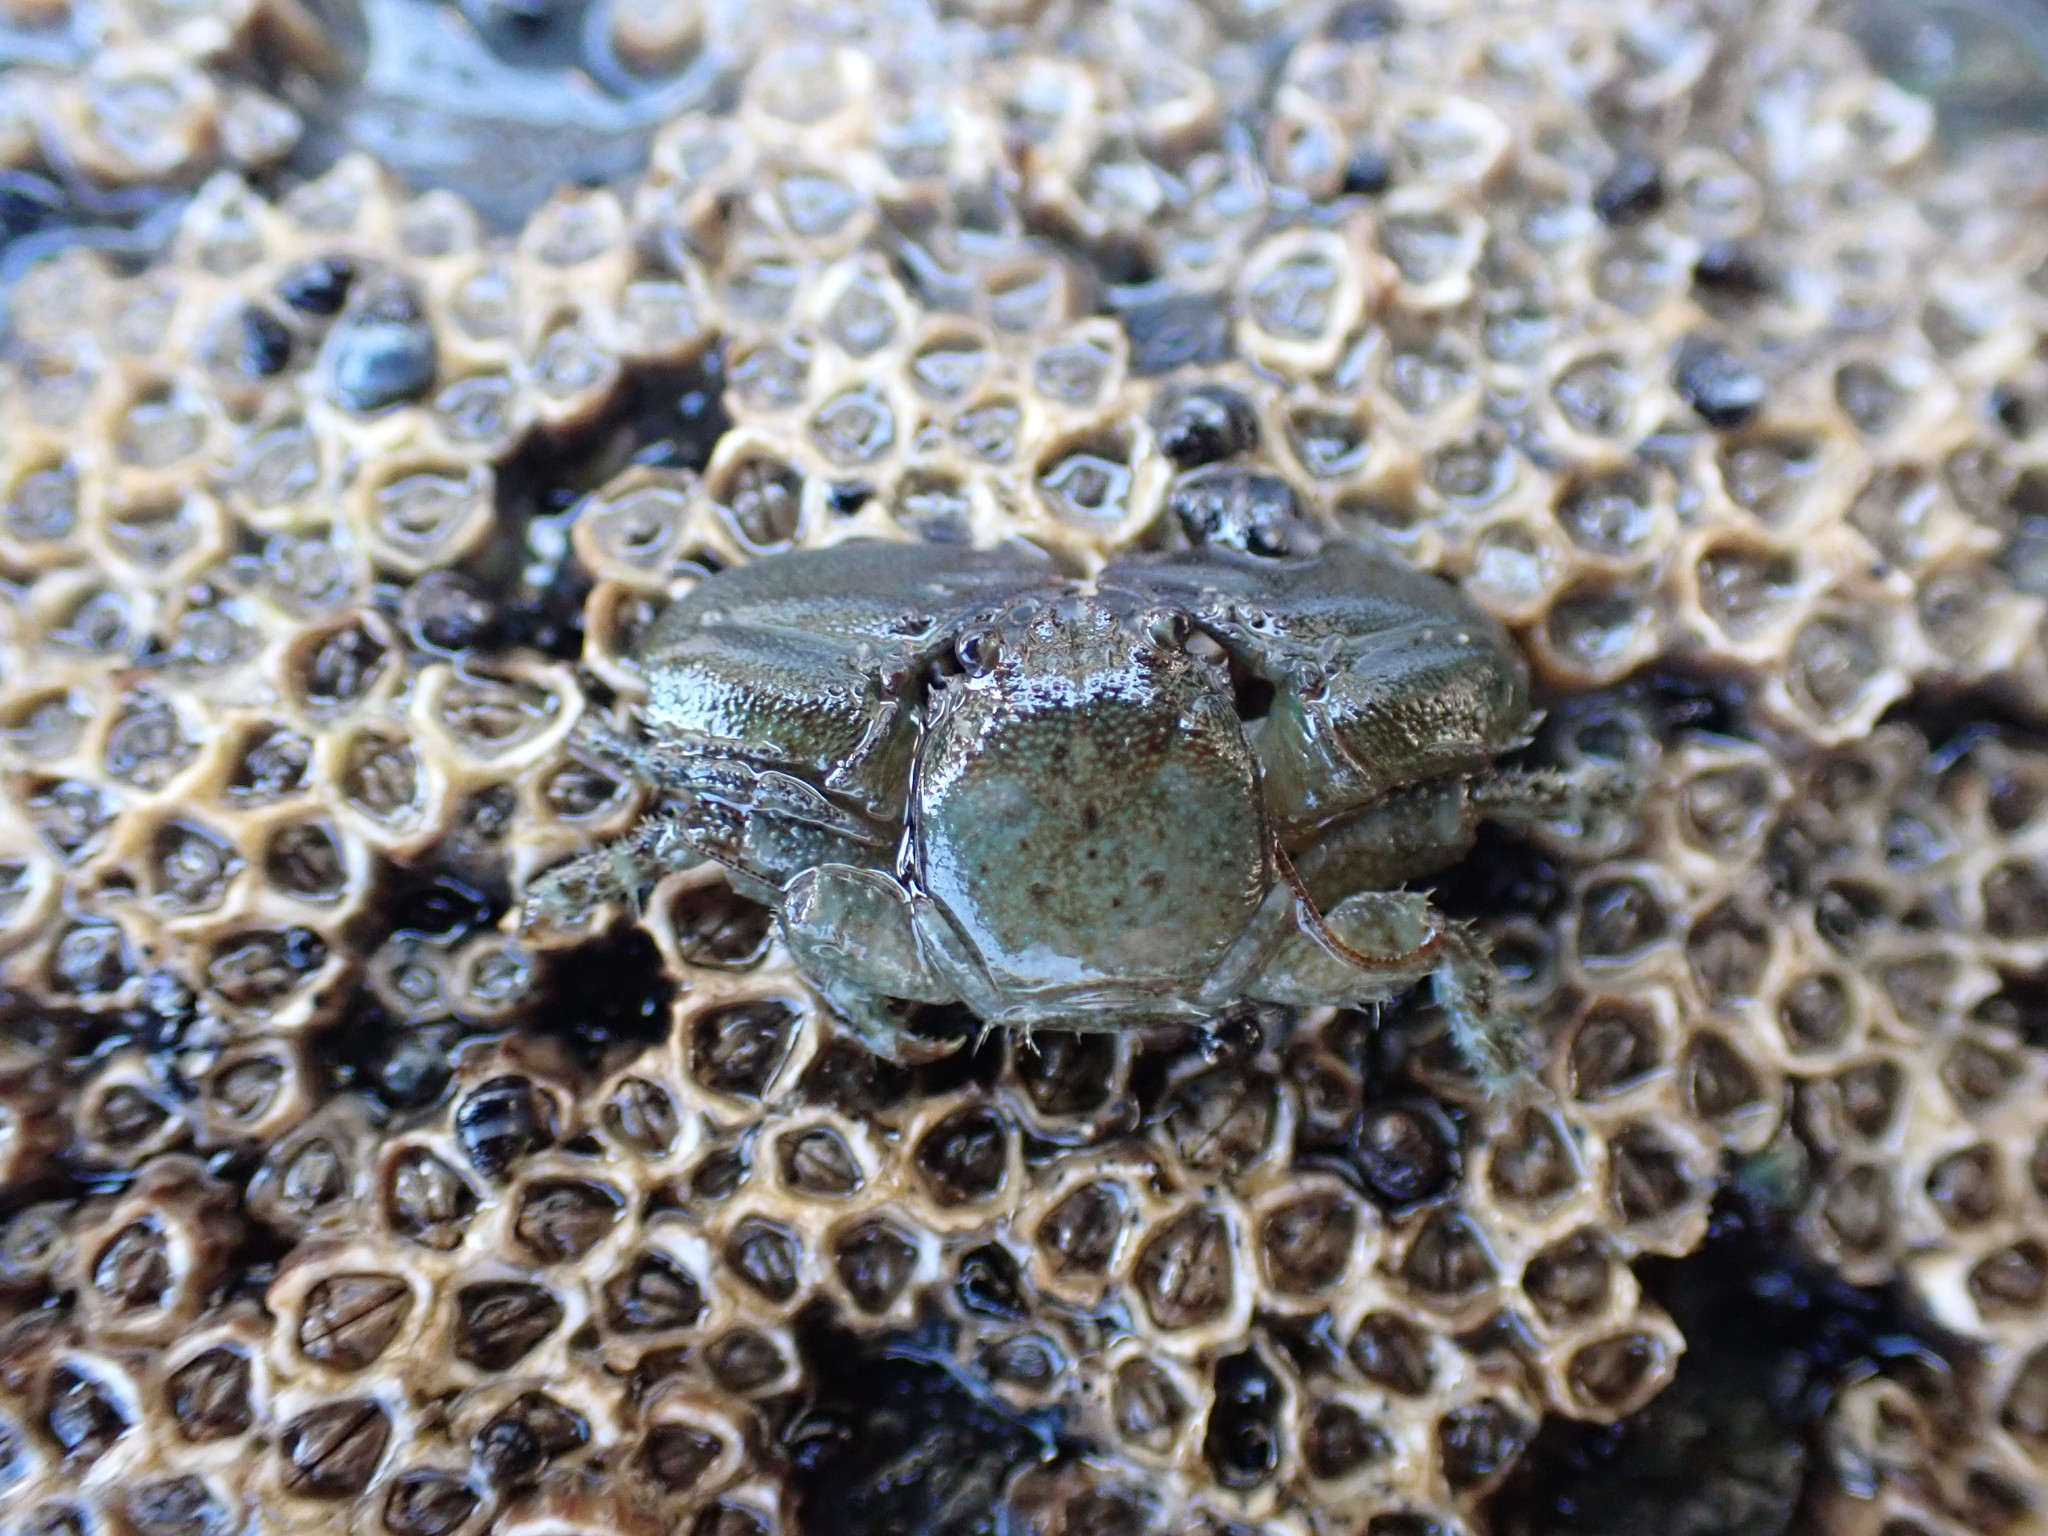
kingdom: Animalia
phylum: Arthropoda
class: Malacostraca
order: Decapoda
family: Porcellanidae
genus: Petrolisthes
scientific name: Petrolisthes elongatus
